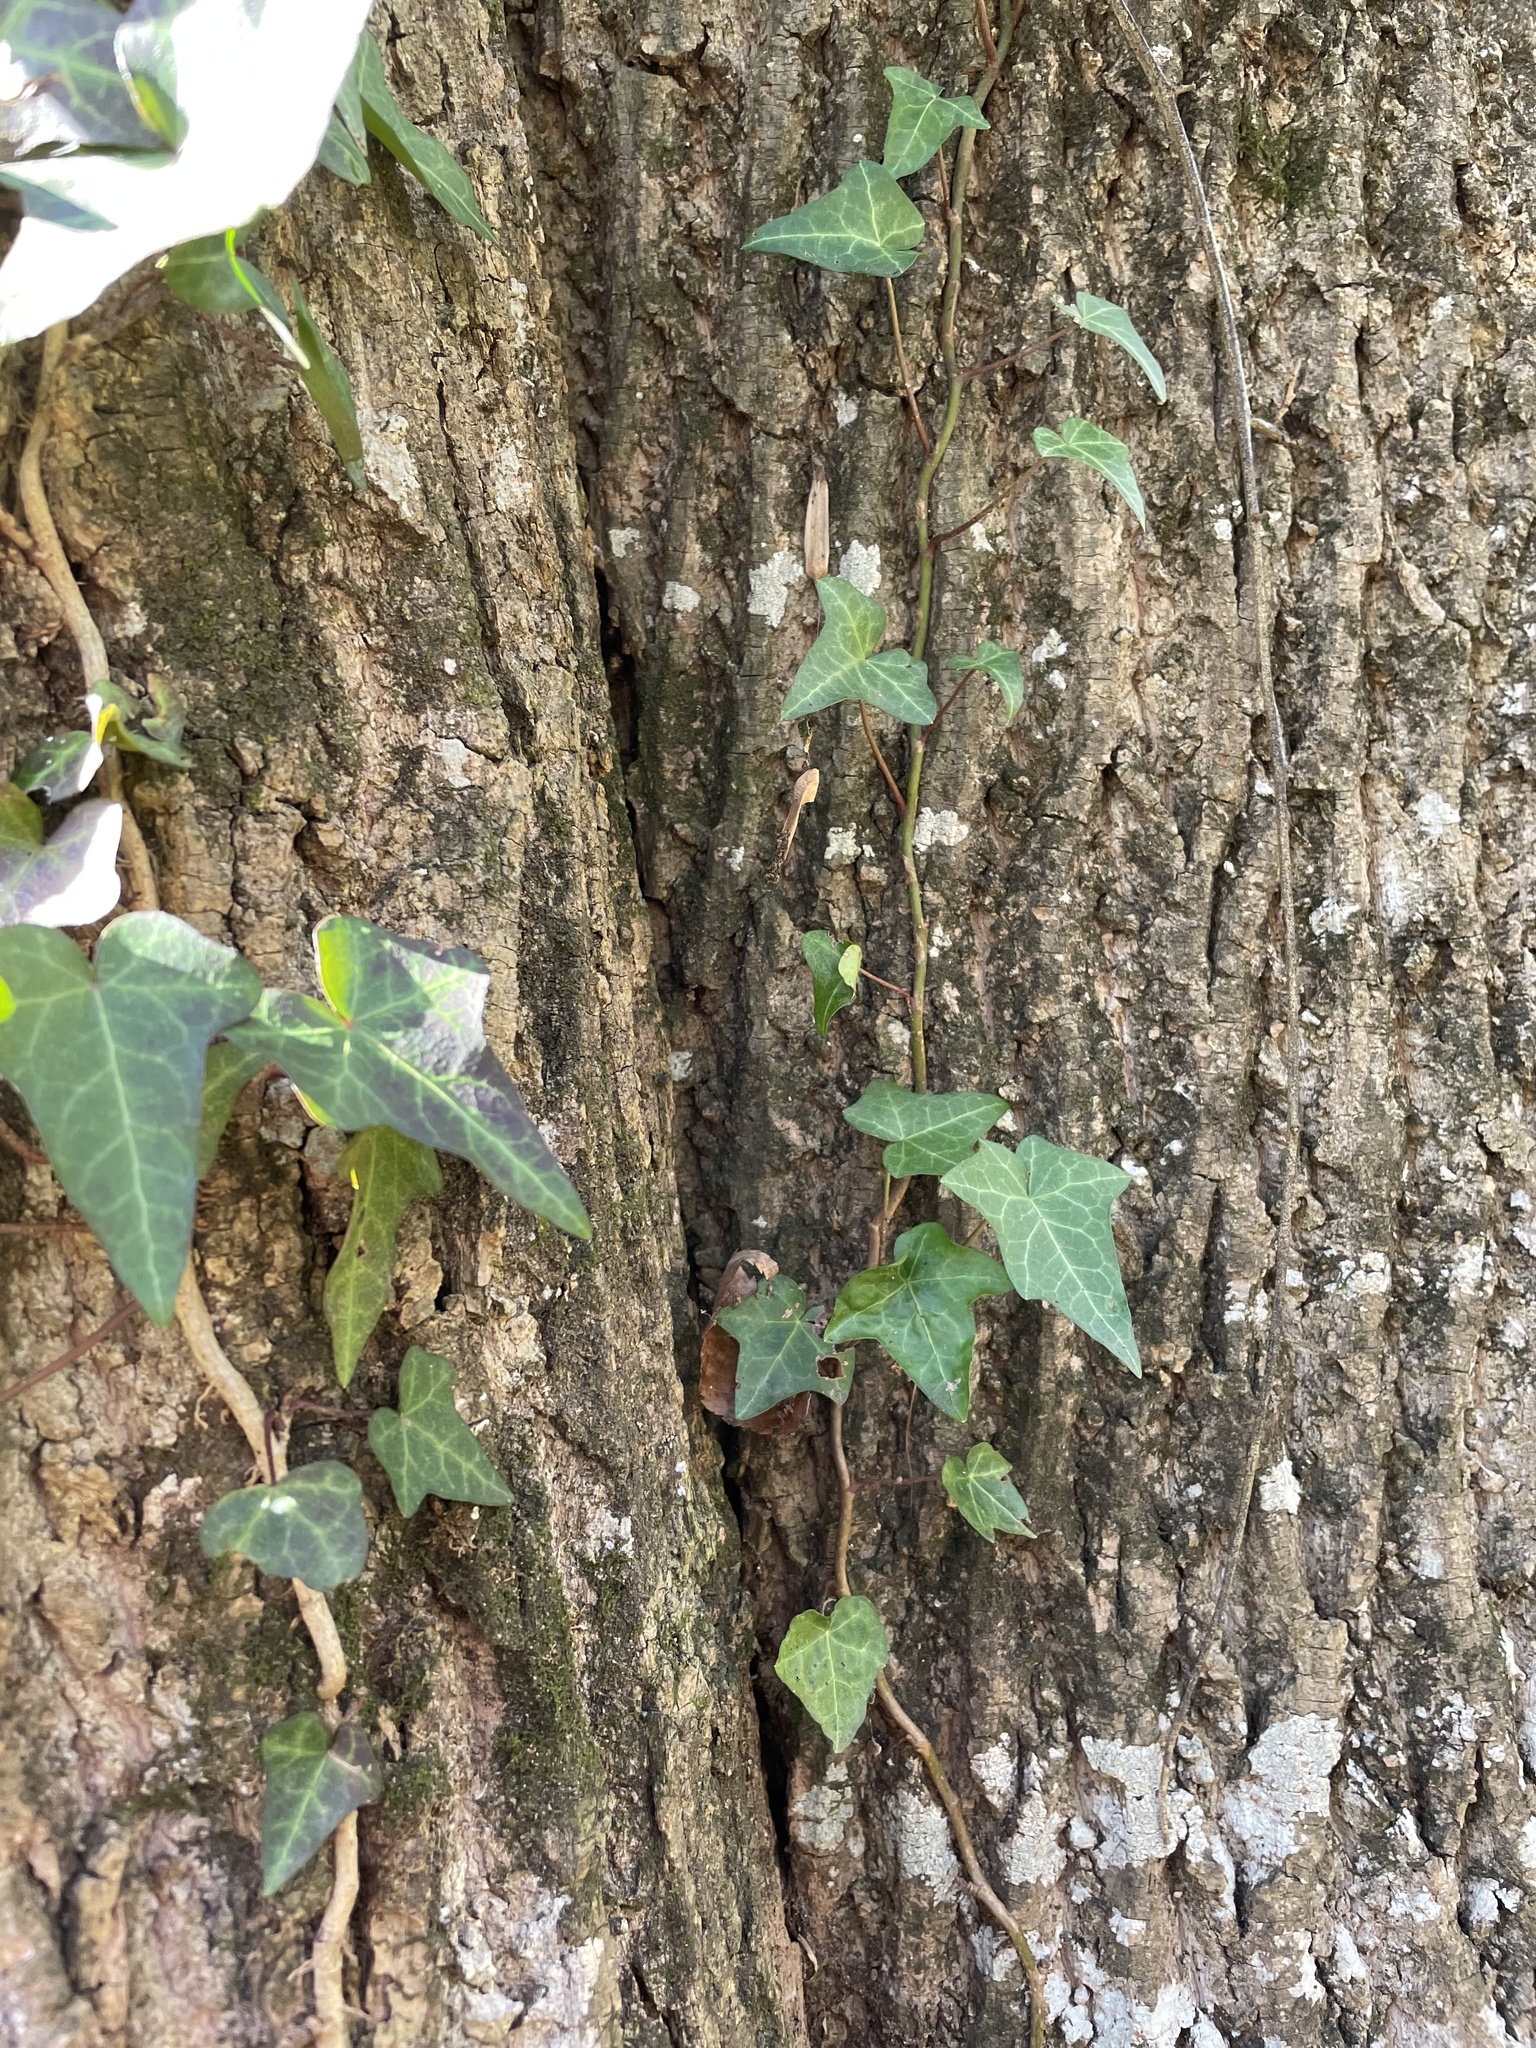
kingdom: Plantae
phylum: Tracheophyta
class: Magnoliopsida
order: Apiales
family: Araliaceae
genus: Hedera
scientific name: Hedera helix
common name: Ivy
